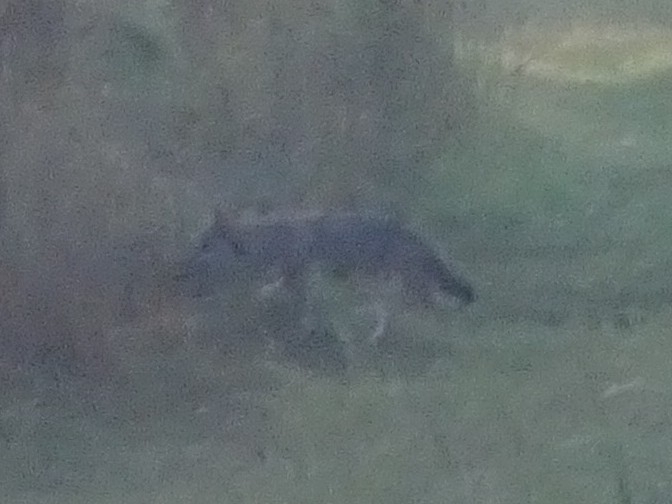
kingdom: Animalia
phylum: Chordata
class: Mammalia
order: Carnivora
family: Canidae
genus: Canis
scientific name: Canis latrans
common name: Coyote
